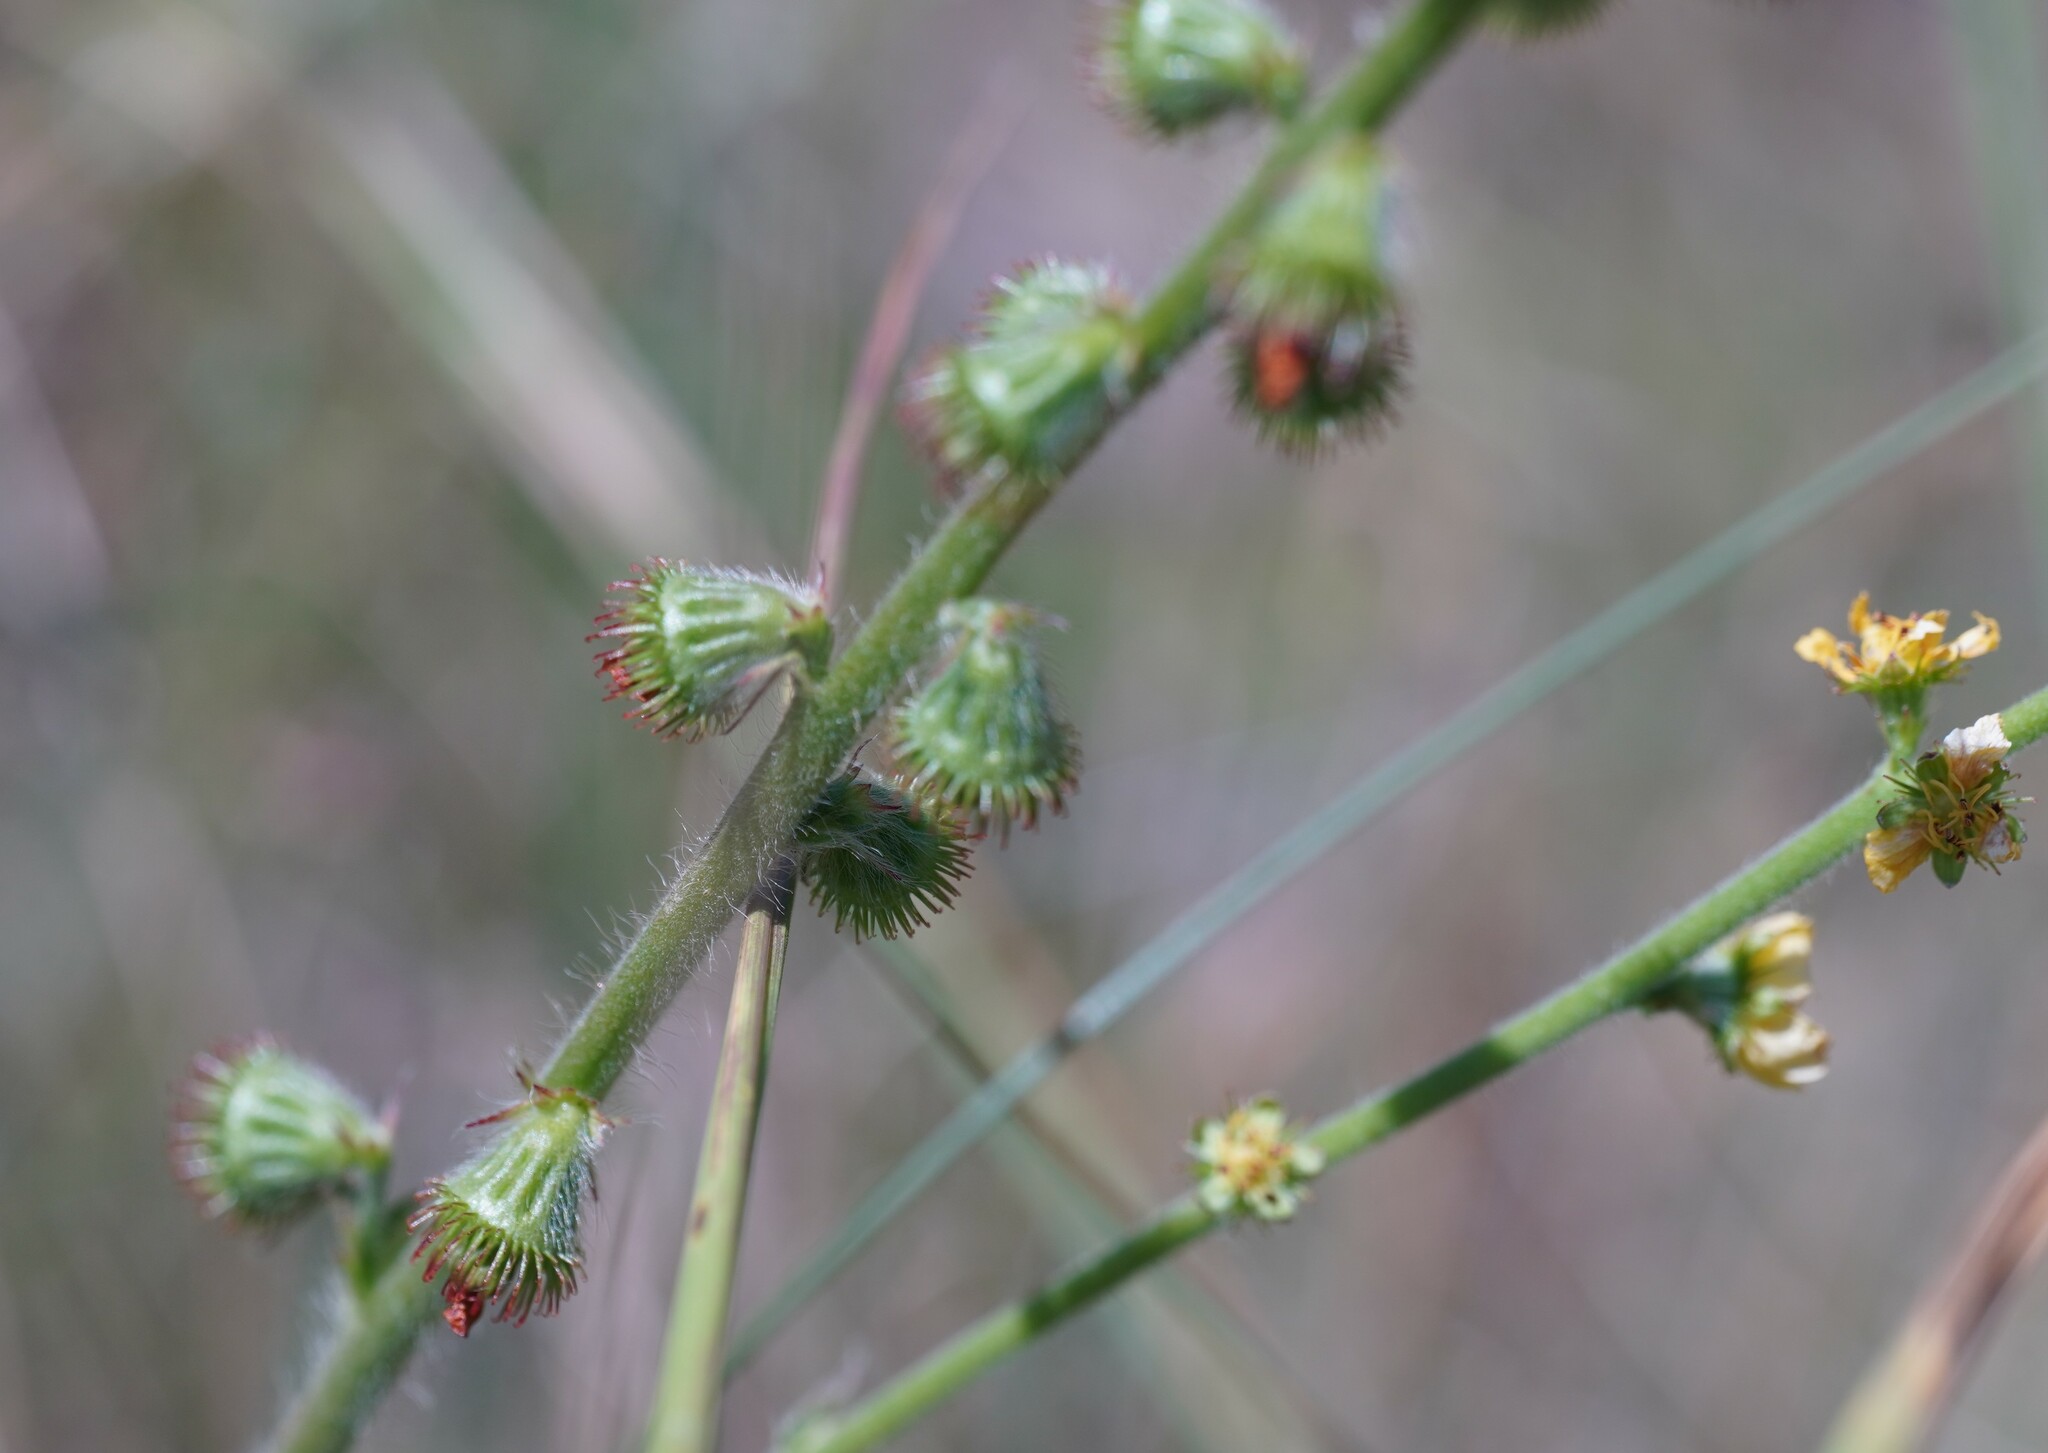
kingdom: Plantae
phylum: Tracheophyta
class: Magnoliopsida
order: Rosales
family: Rosaceae
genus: Agrimonia
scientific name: Agrimonia eupatoria
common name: Agrimony
